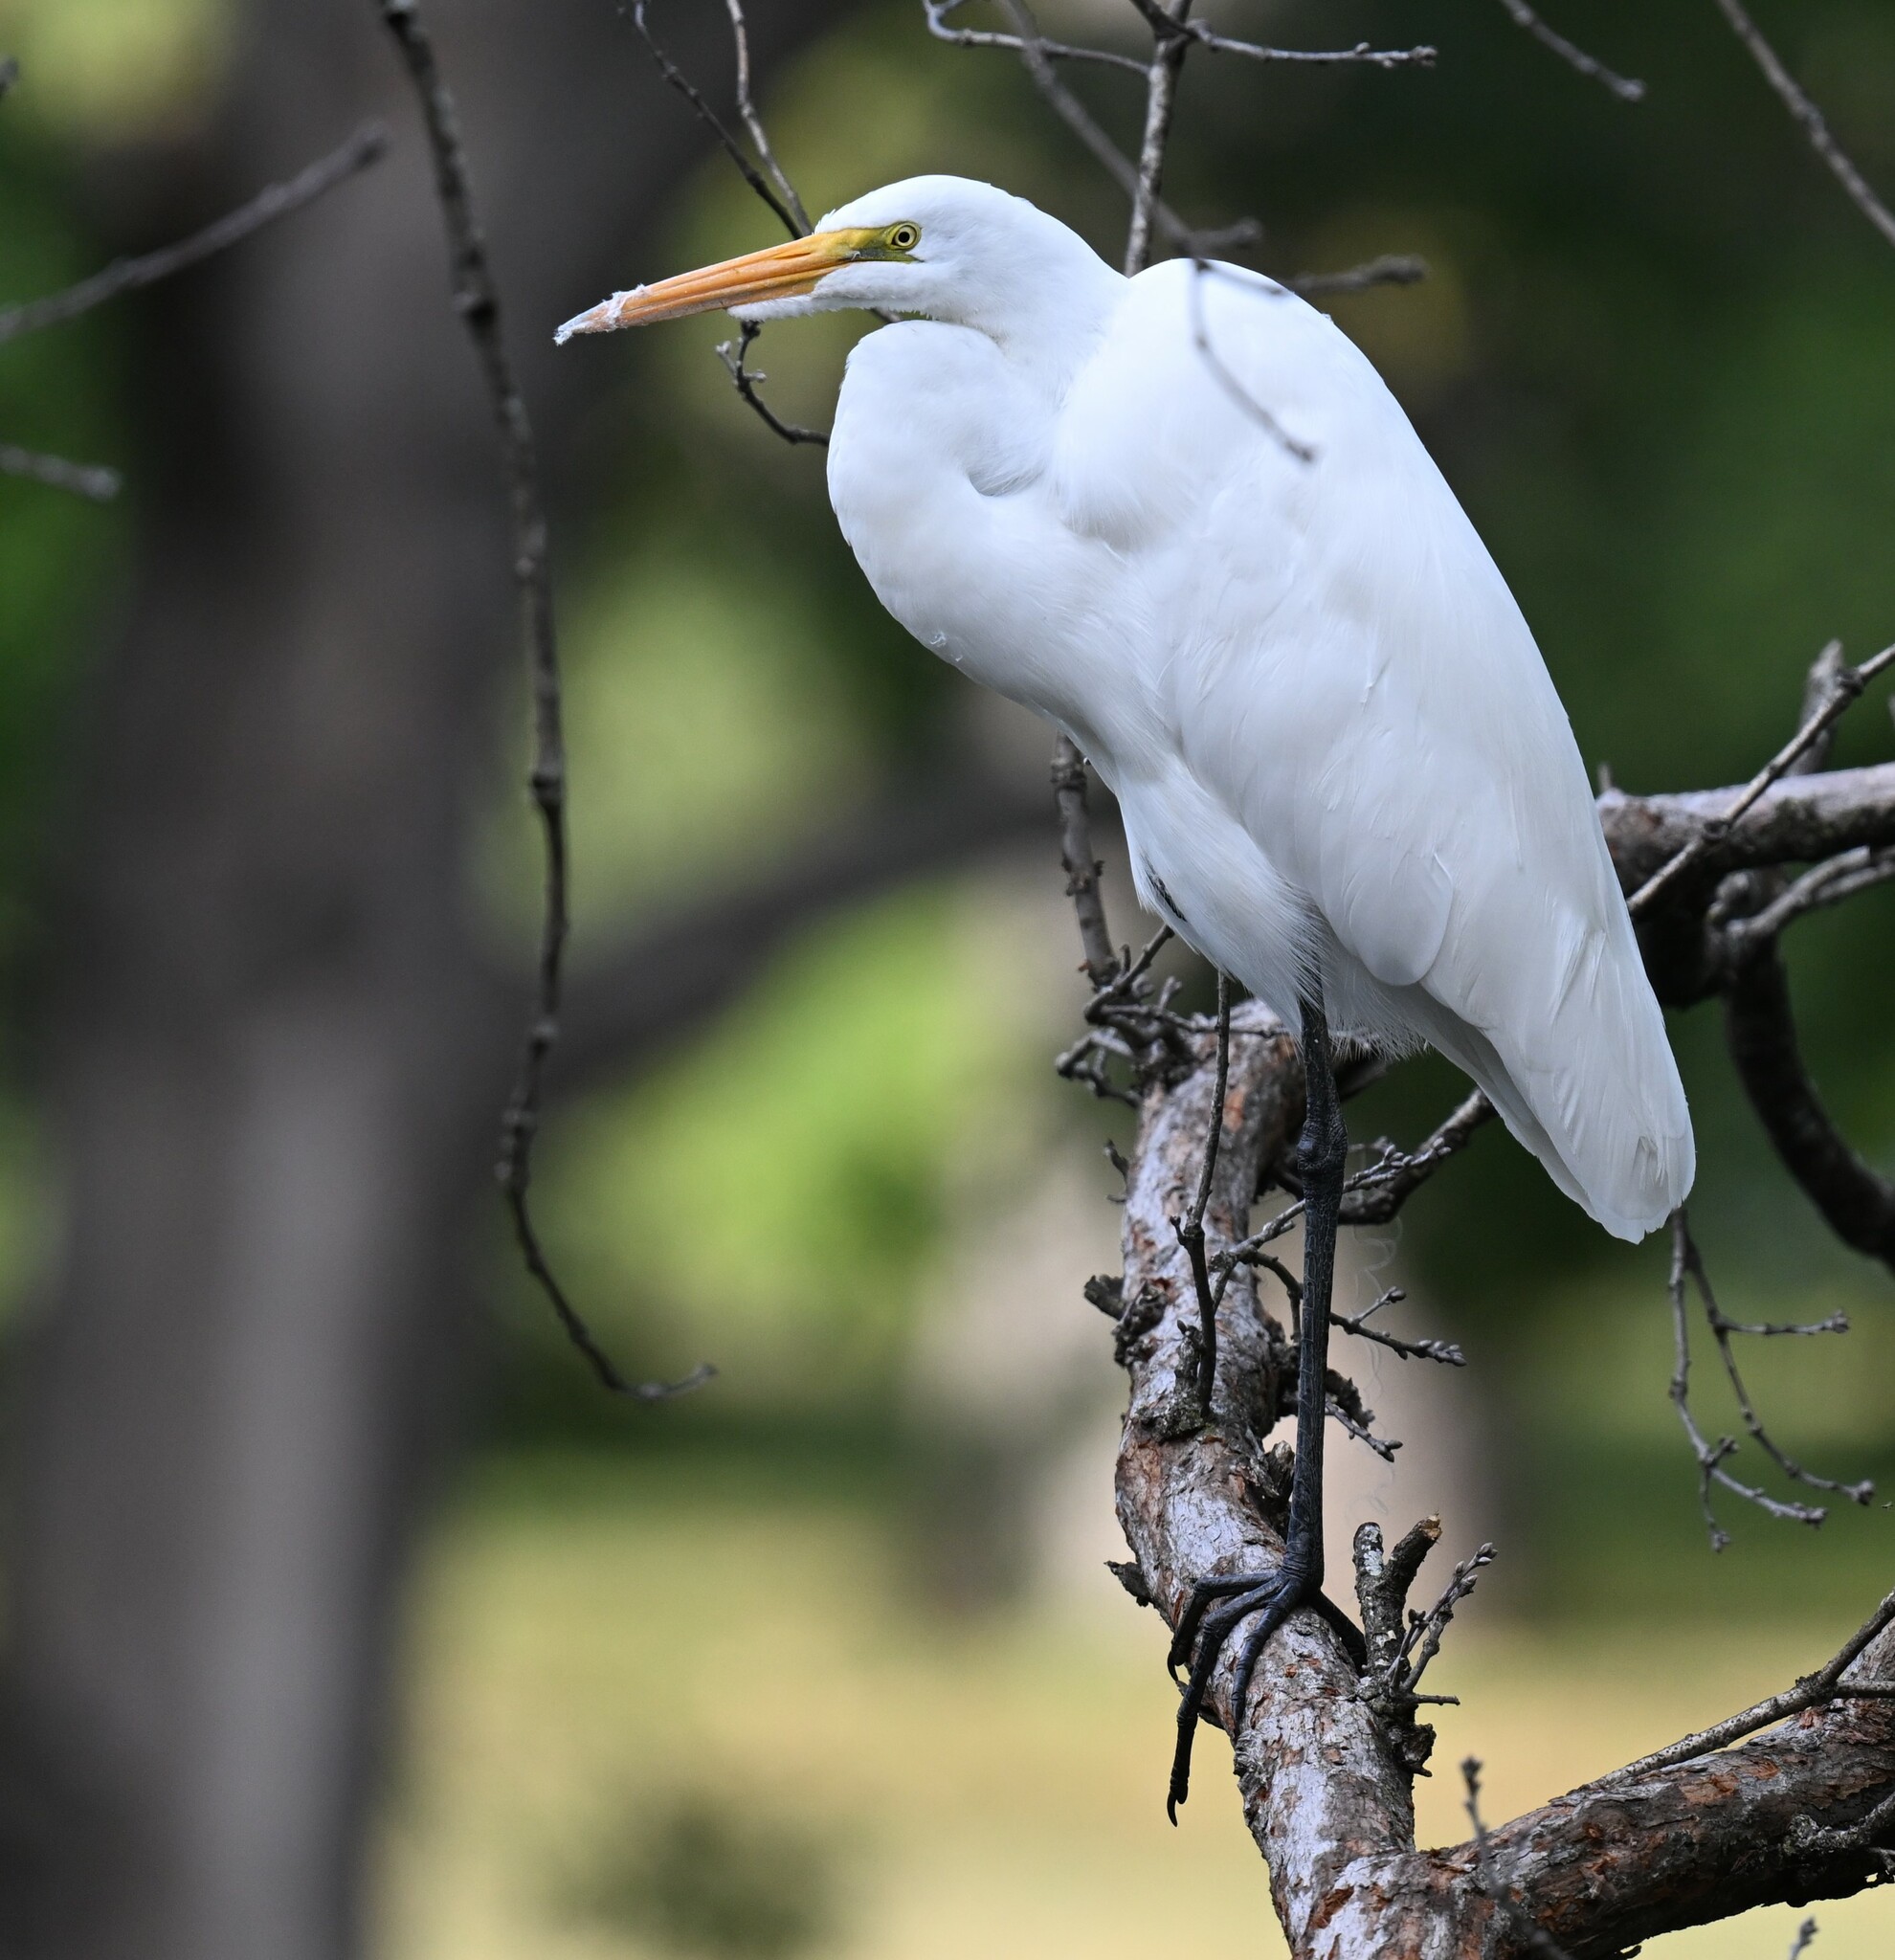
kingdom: Animalia
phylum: Chordata
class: Aves
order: Pelecaniformes
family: Ardeidae
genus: Ardea
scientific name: Ardea alba
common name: Great egret
